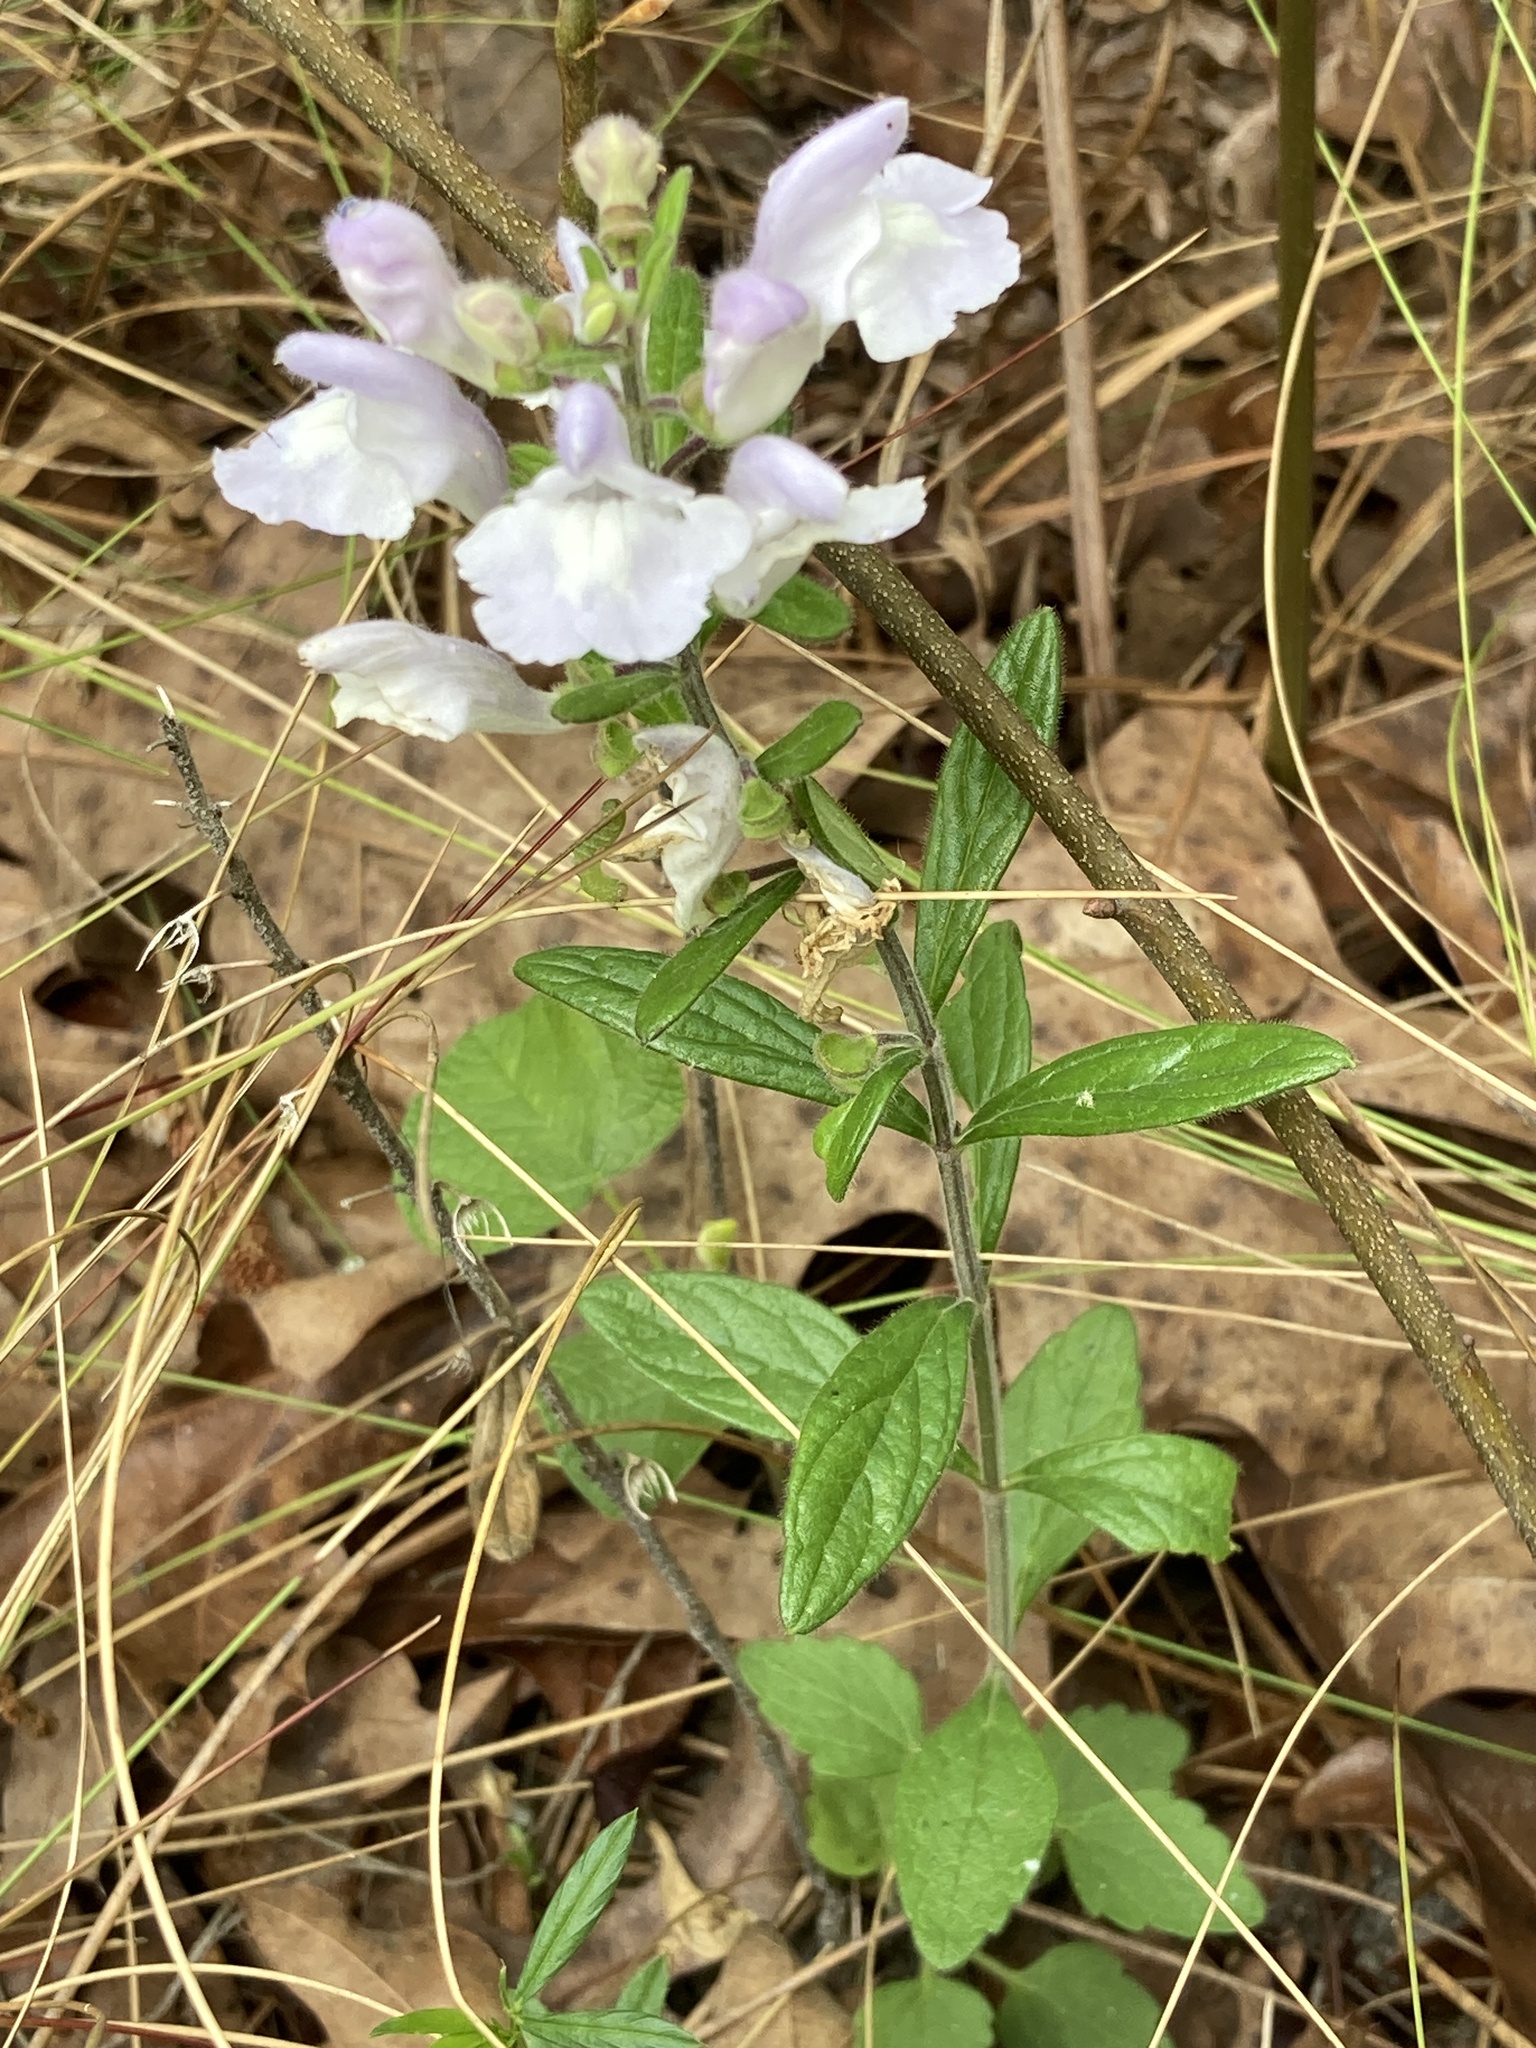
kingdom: Plantae
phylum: Tracheophyta
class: Magnoliopsida
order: Lamiales
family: Lamiaceae
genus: Scutellaria
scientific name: Scutellaria multiglandulosa
